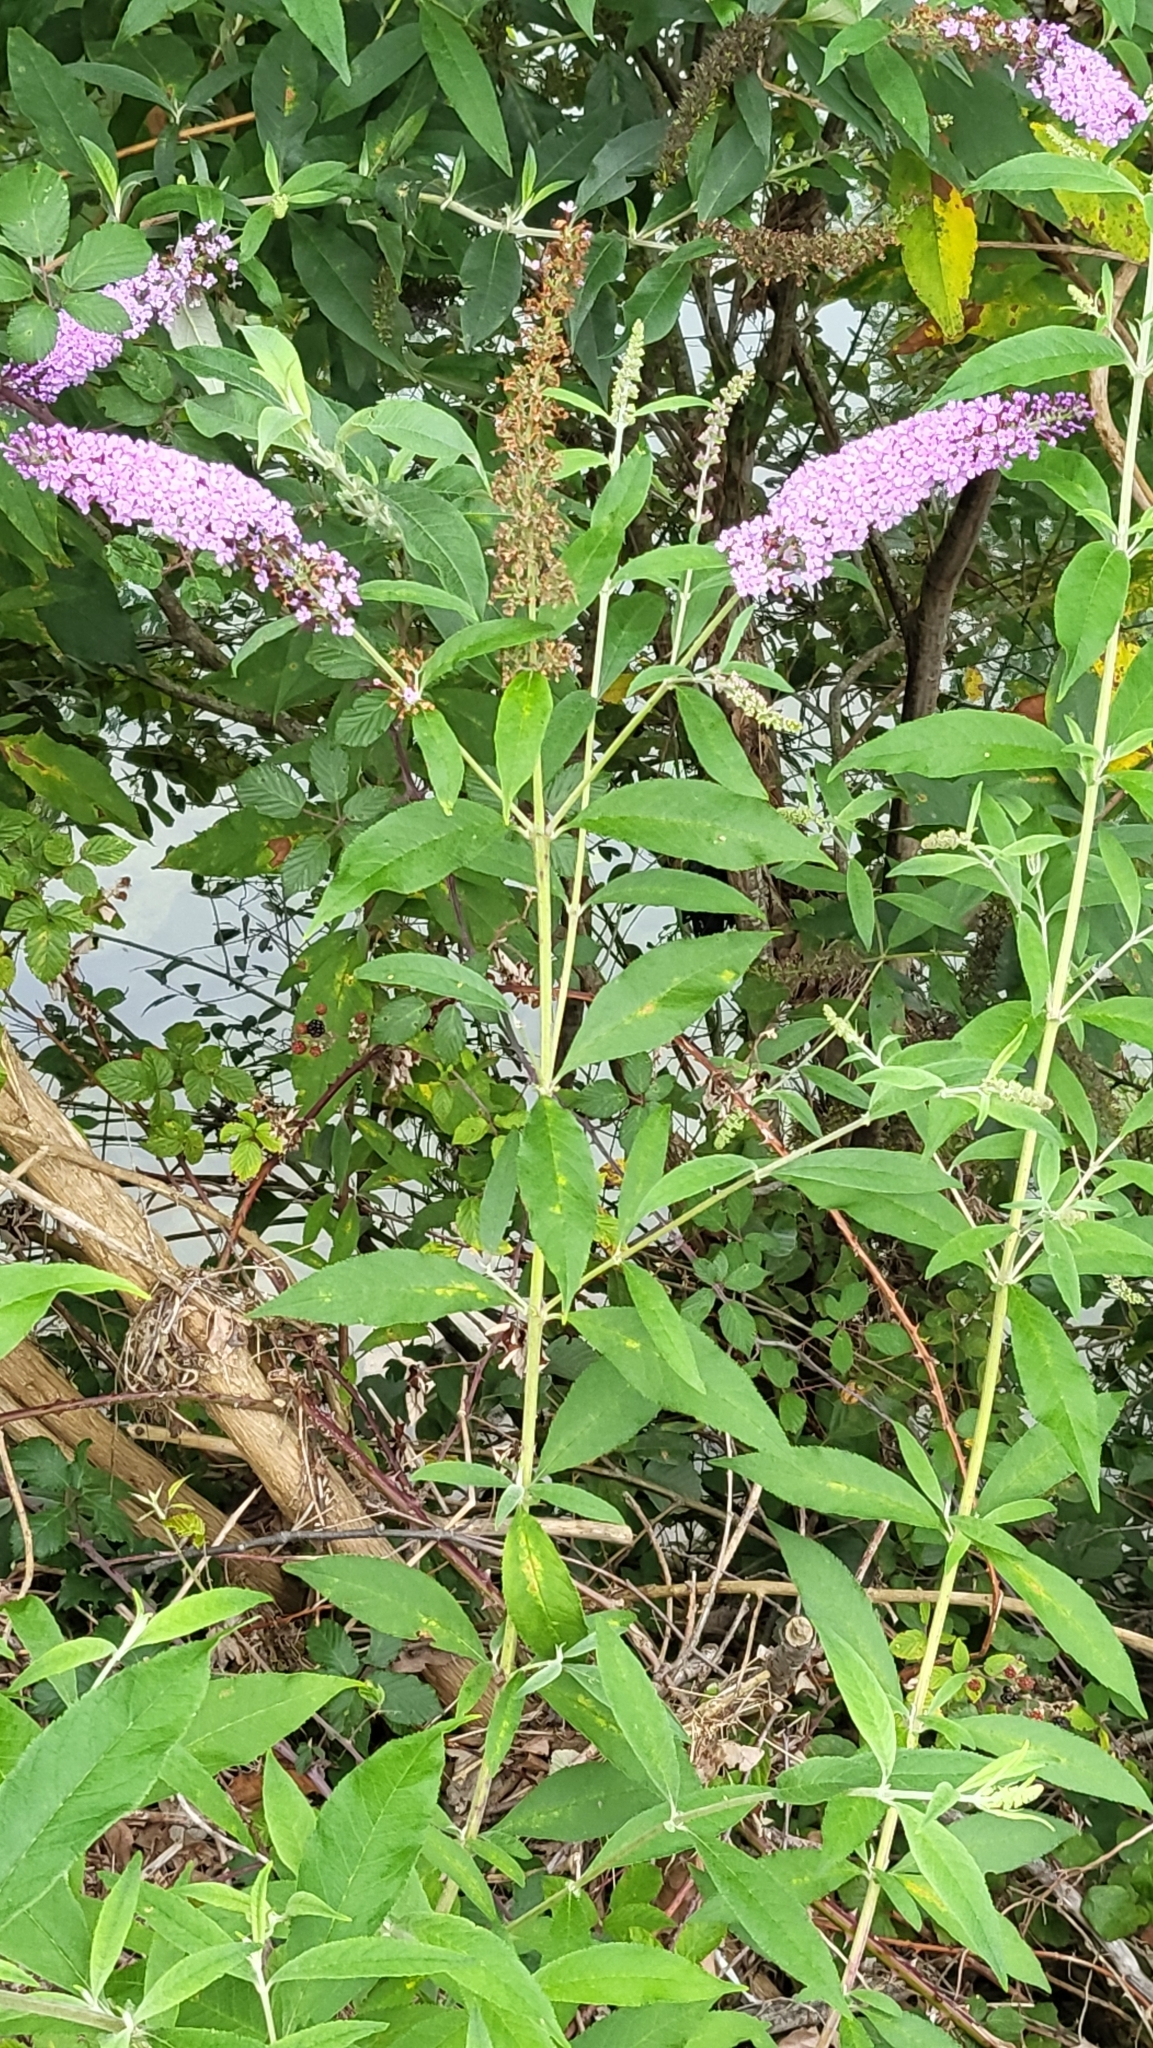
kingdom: Plantae
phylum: Tracheophyta
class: Magnoliopsida
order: Lamiales
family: Scrophulariaceae
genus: Buddleja
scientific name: Buddleja davidii
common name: Butterfly-bush
